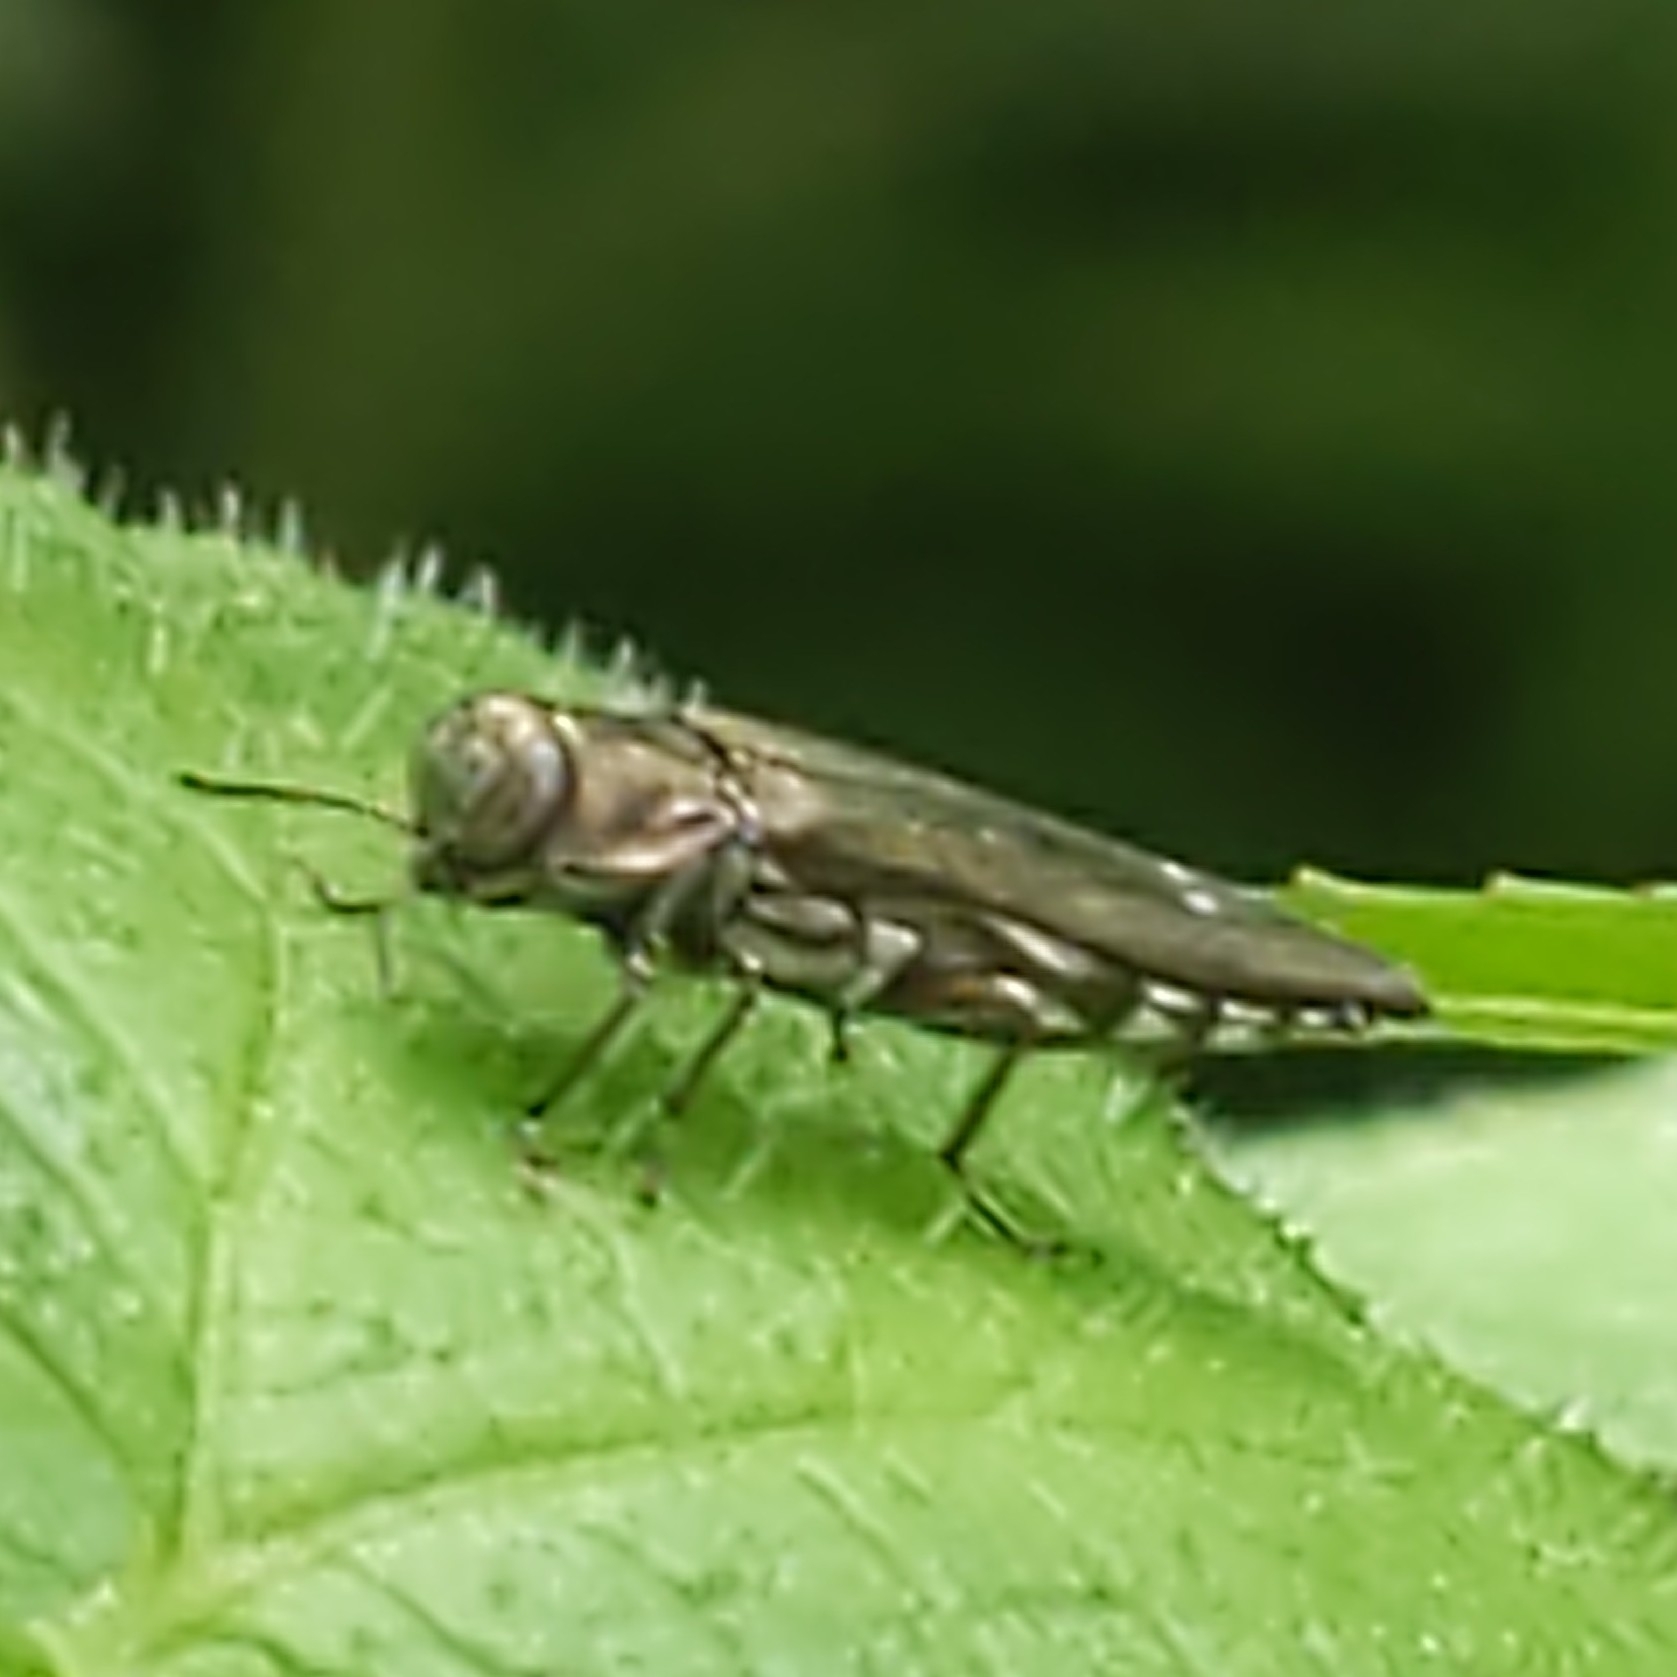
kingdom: Animalia
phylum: Arthropoda
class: Insecta
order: Coleoptera
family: Buprestidae
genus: Agrilus
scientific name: Agrilus quadriguttatus
